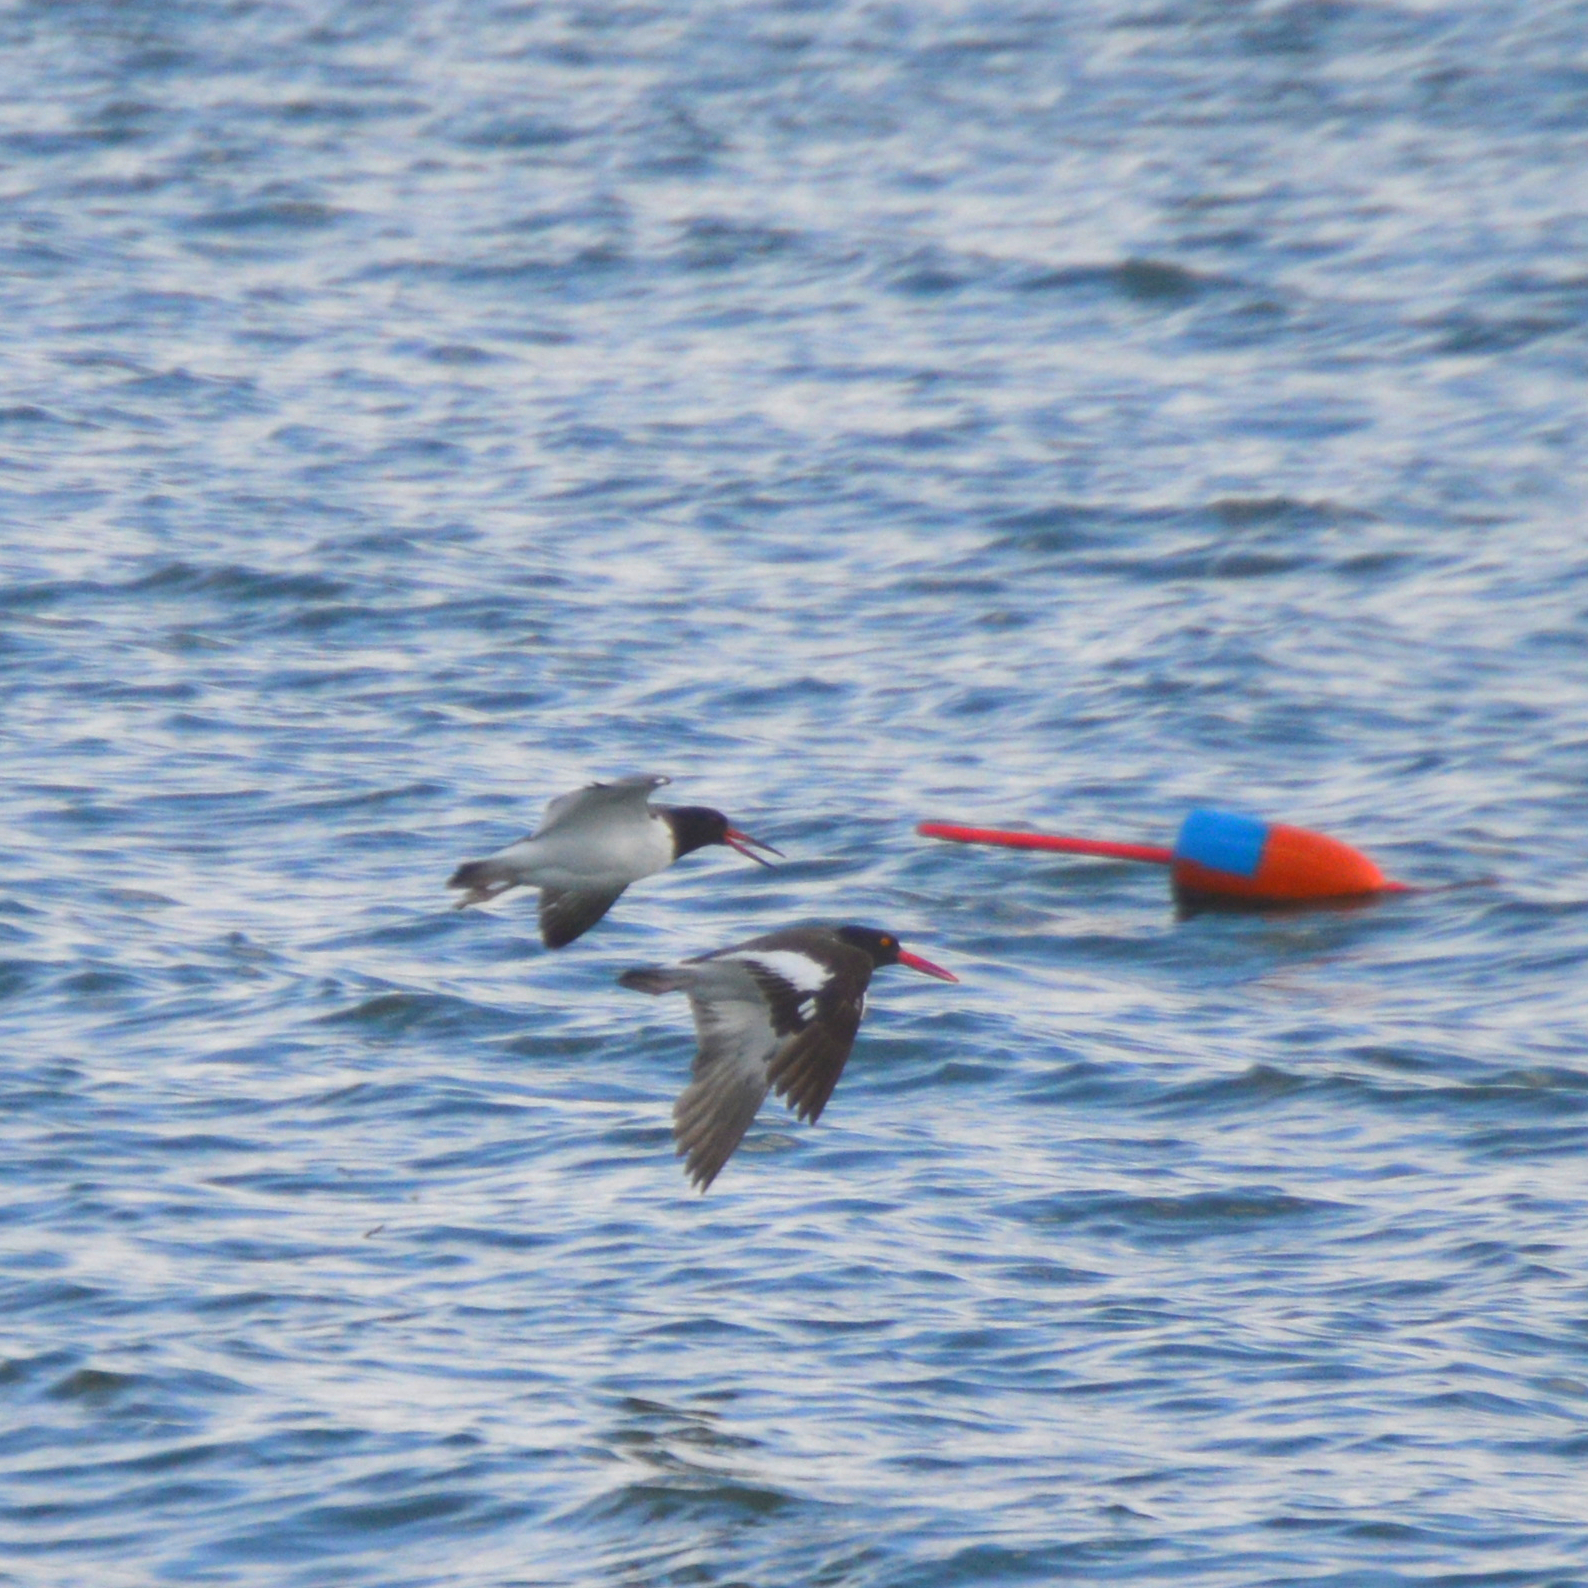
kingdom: Animalia
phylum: Chordata
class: Aves
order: Charadriiformes
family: Haematopodidae
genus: Haematopus
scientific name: Haematopus palliatus
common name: American oystercatcher
